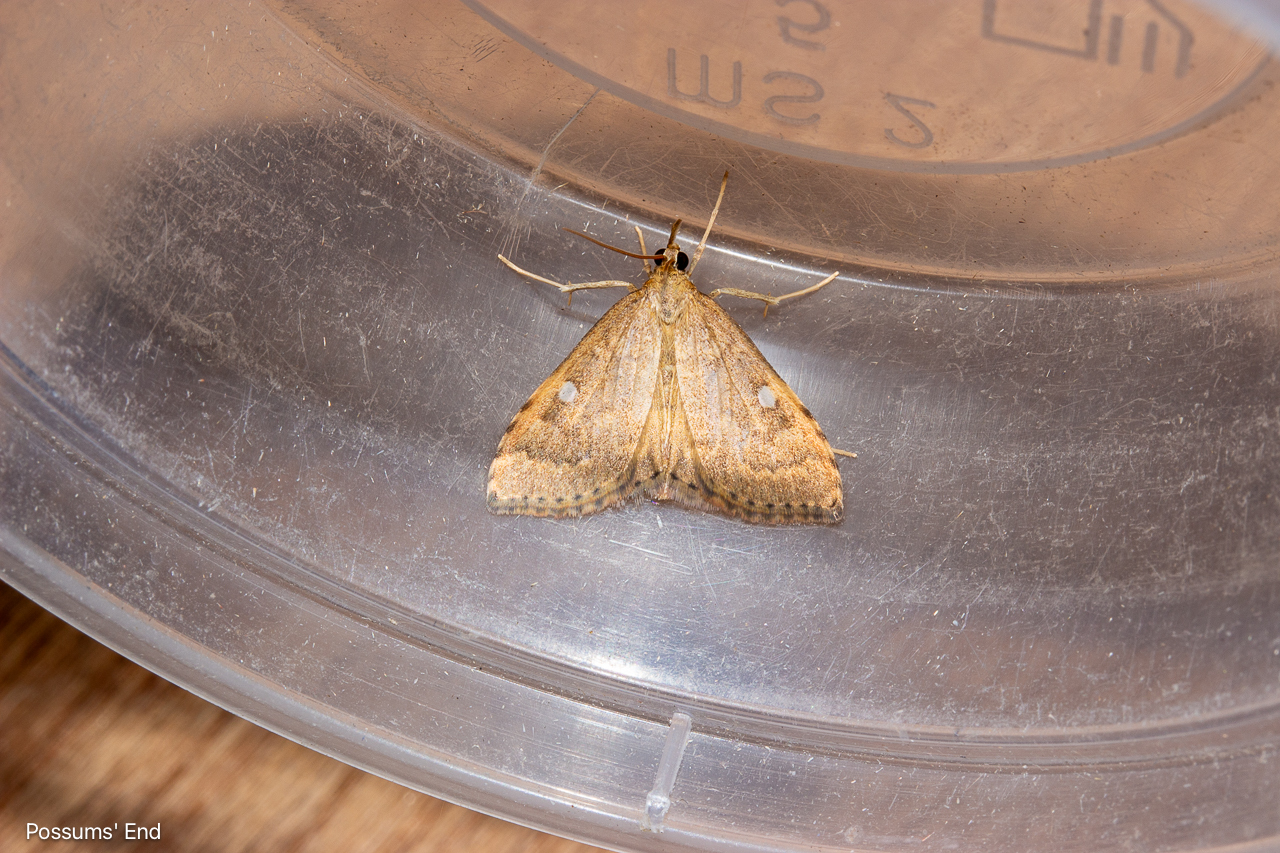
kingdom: Animalia
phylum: Arthropoda
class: Insecta
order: Lepidoptera
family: Crambidae
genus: Udea
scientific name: Udea Mnesictena marmarina
